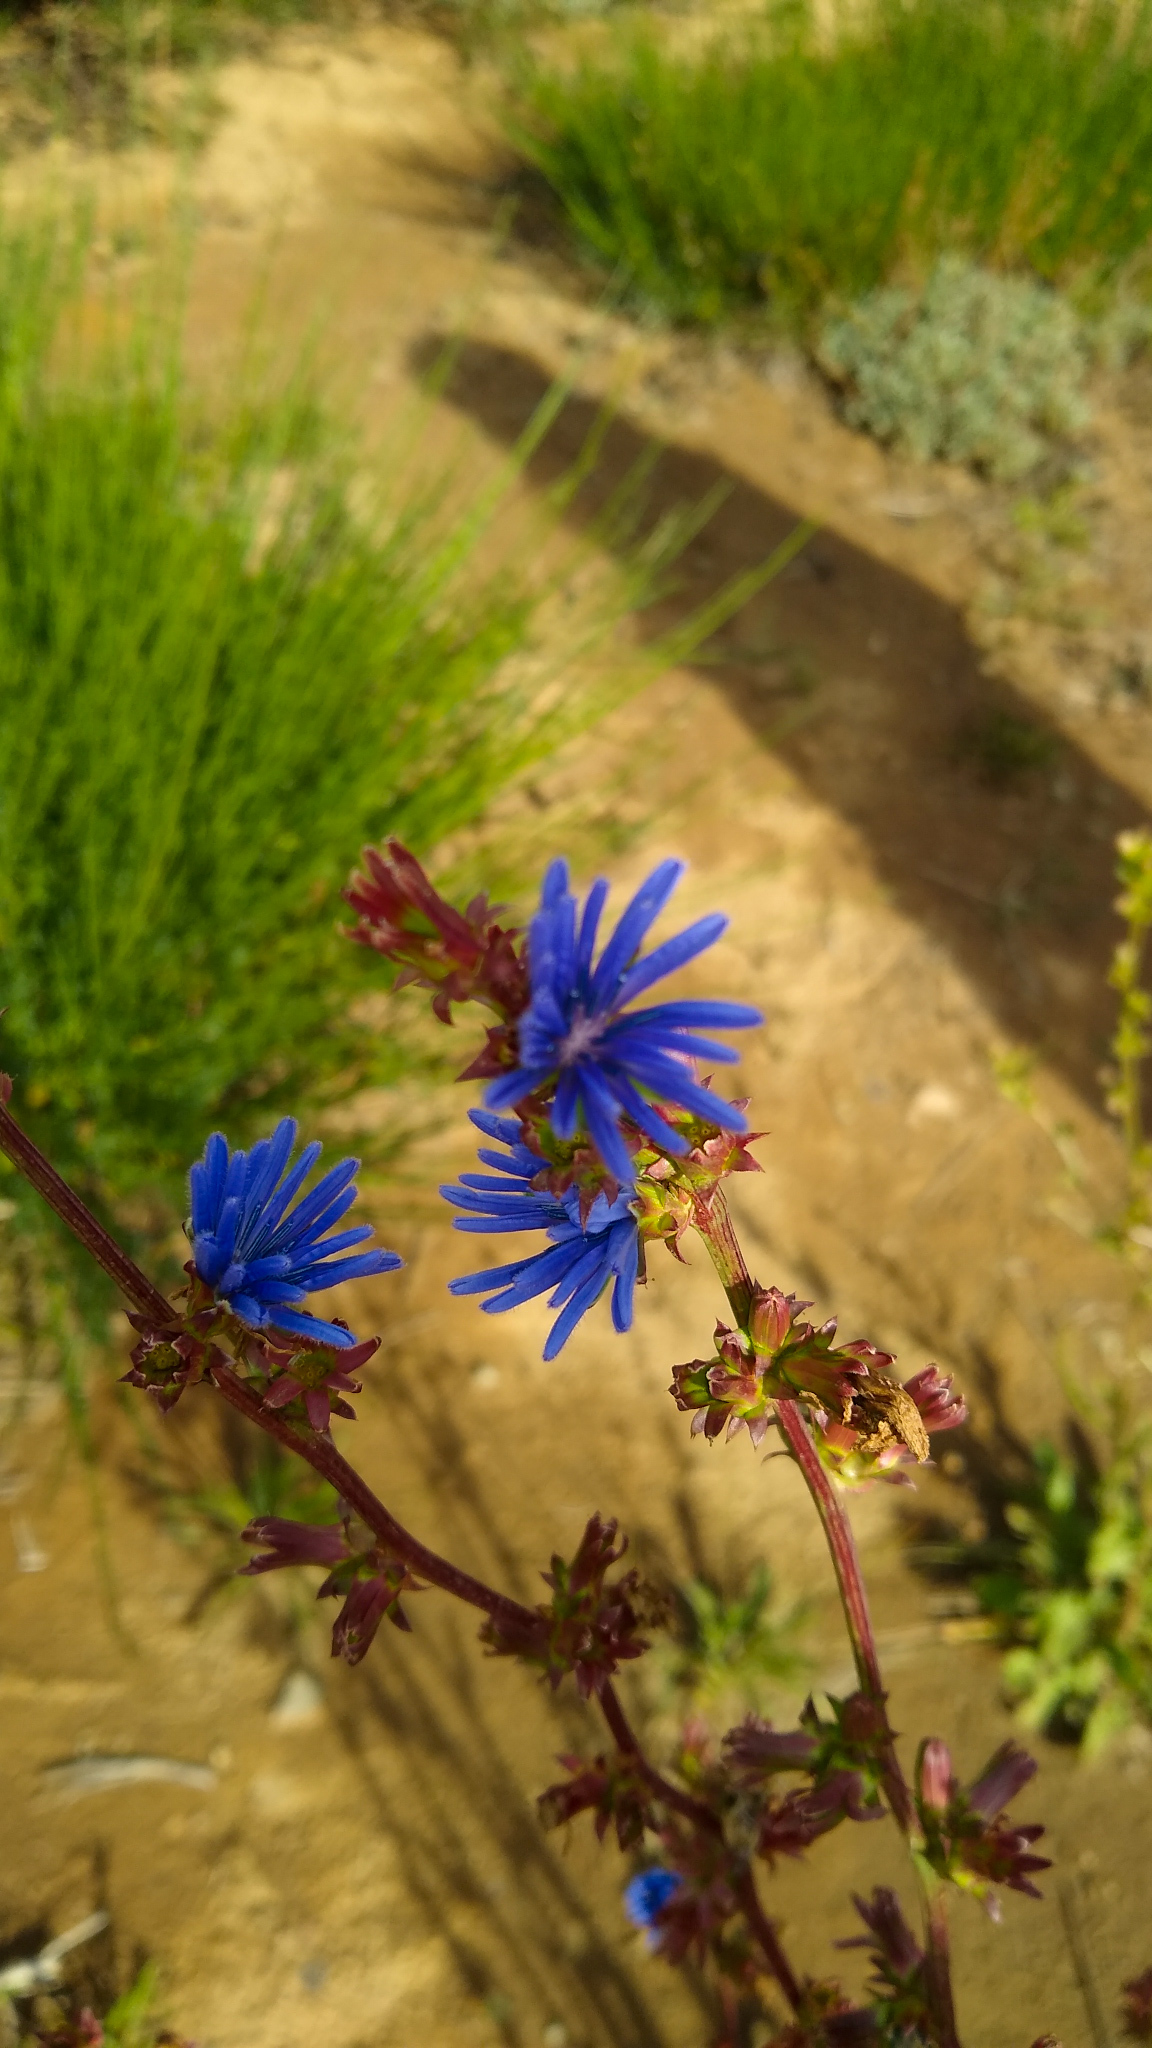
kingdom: Plantae
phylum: Tracheophyta
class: Magnoliopsida
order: Asterales
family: Asteraceae
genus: Cichorium
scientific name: Cichorium intybus
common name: Chicory
